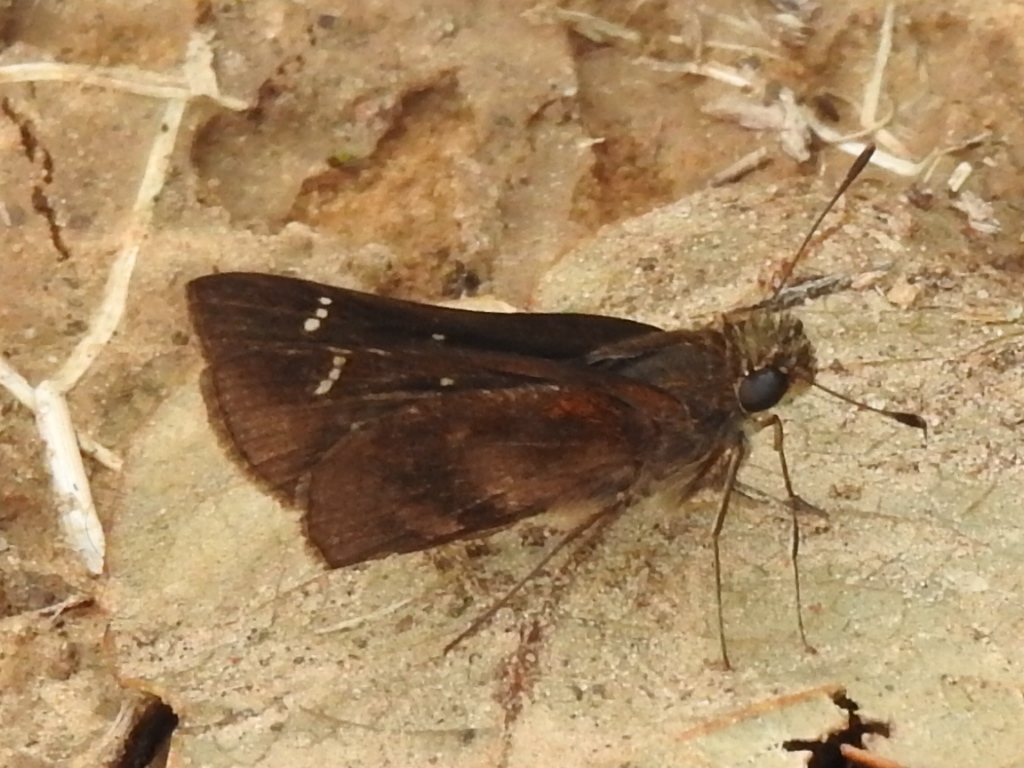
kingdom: Animalia
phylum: Arthropoda
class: Insecta
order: Lepidoptera
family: Hesperiidae
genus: Lerema
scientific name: Lerema accius
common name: Clouded skipper
